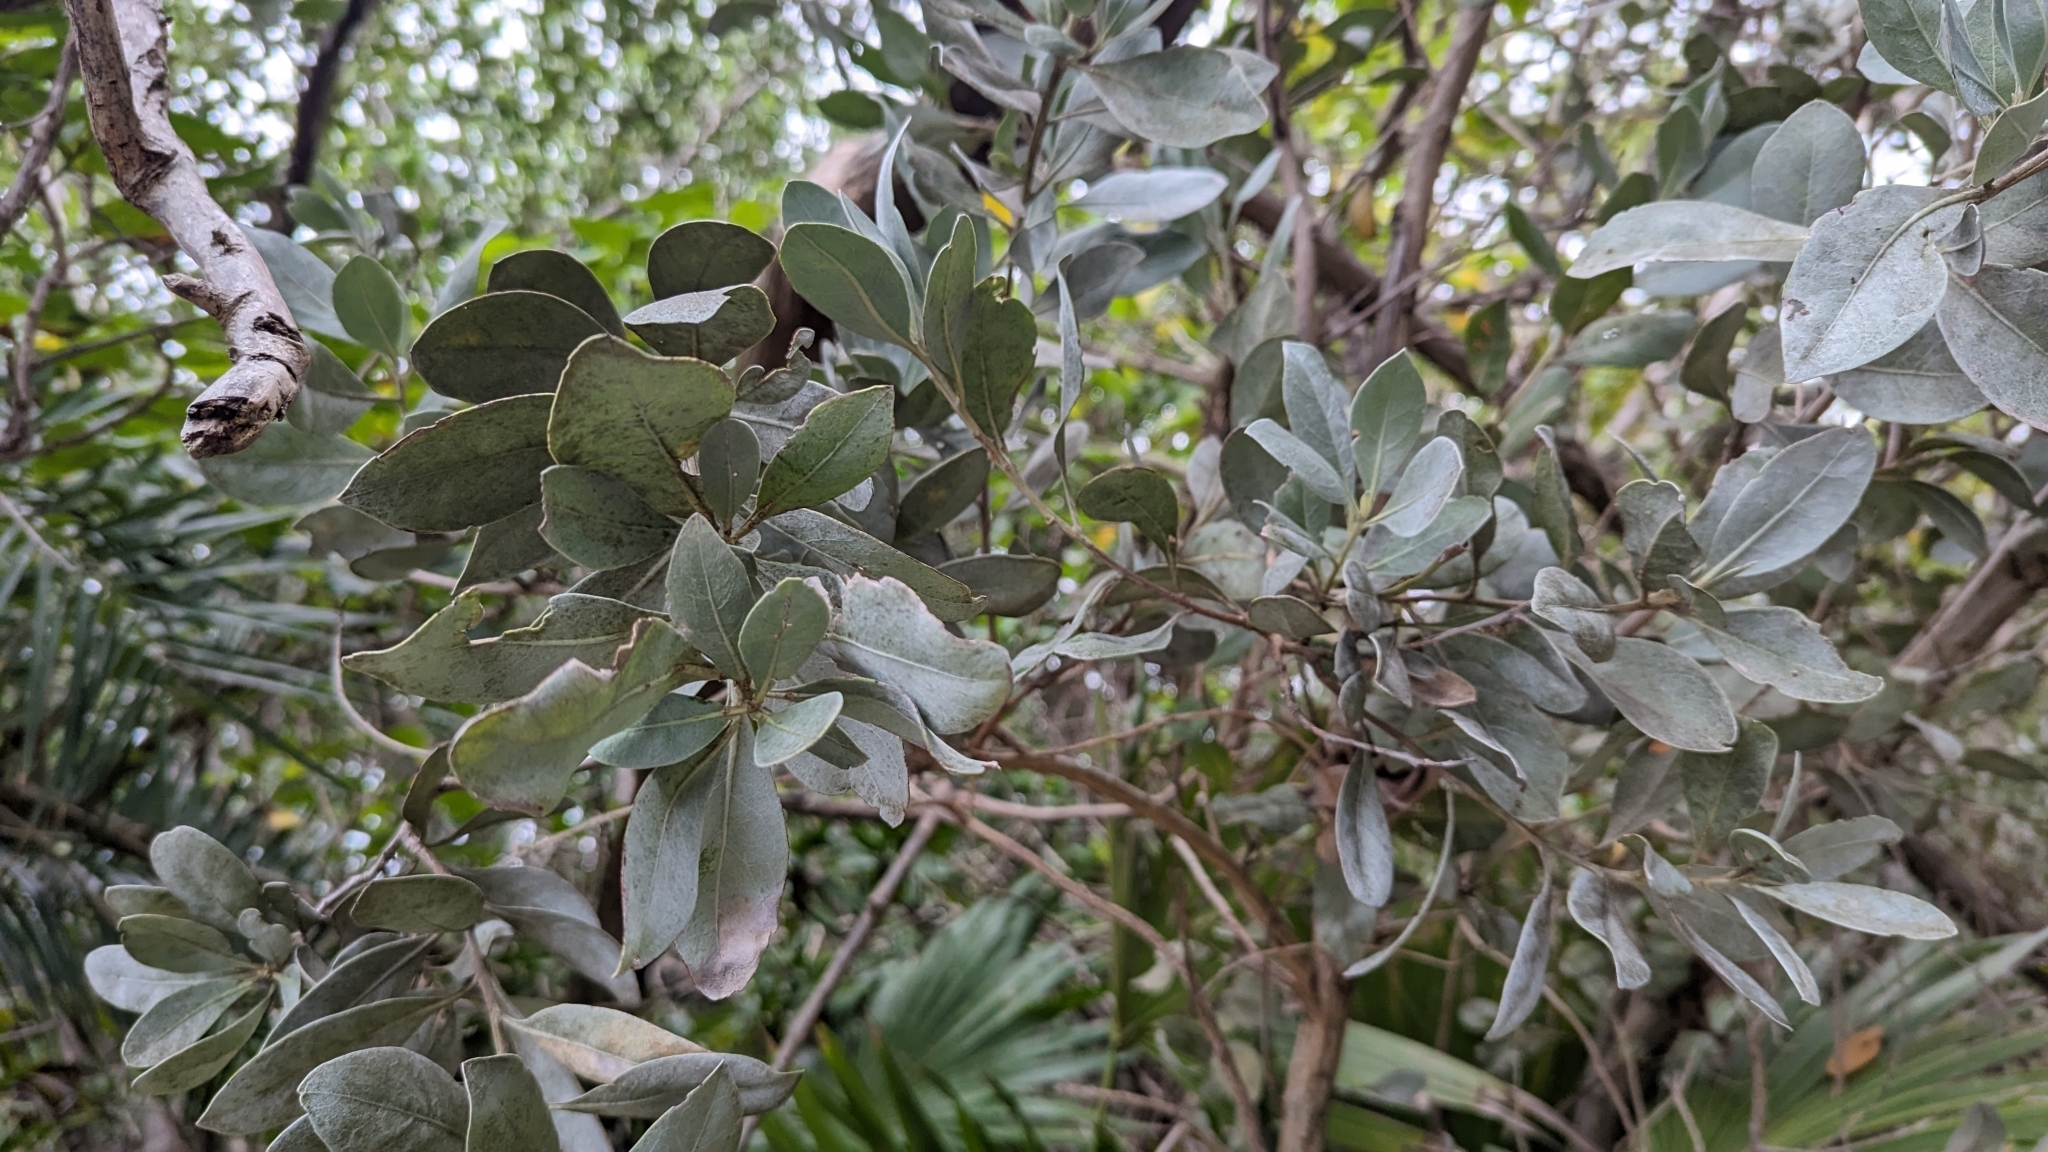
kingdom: Plantae
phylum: Tracheophyta
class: Magnoliopsida
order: Myrtales
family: Combretaceae
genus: Conocarpus
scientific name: Conocarpus erectus
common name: Button mangrove
